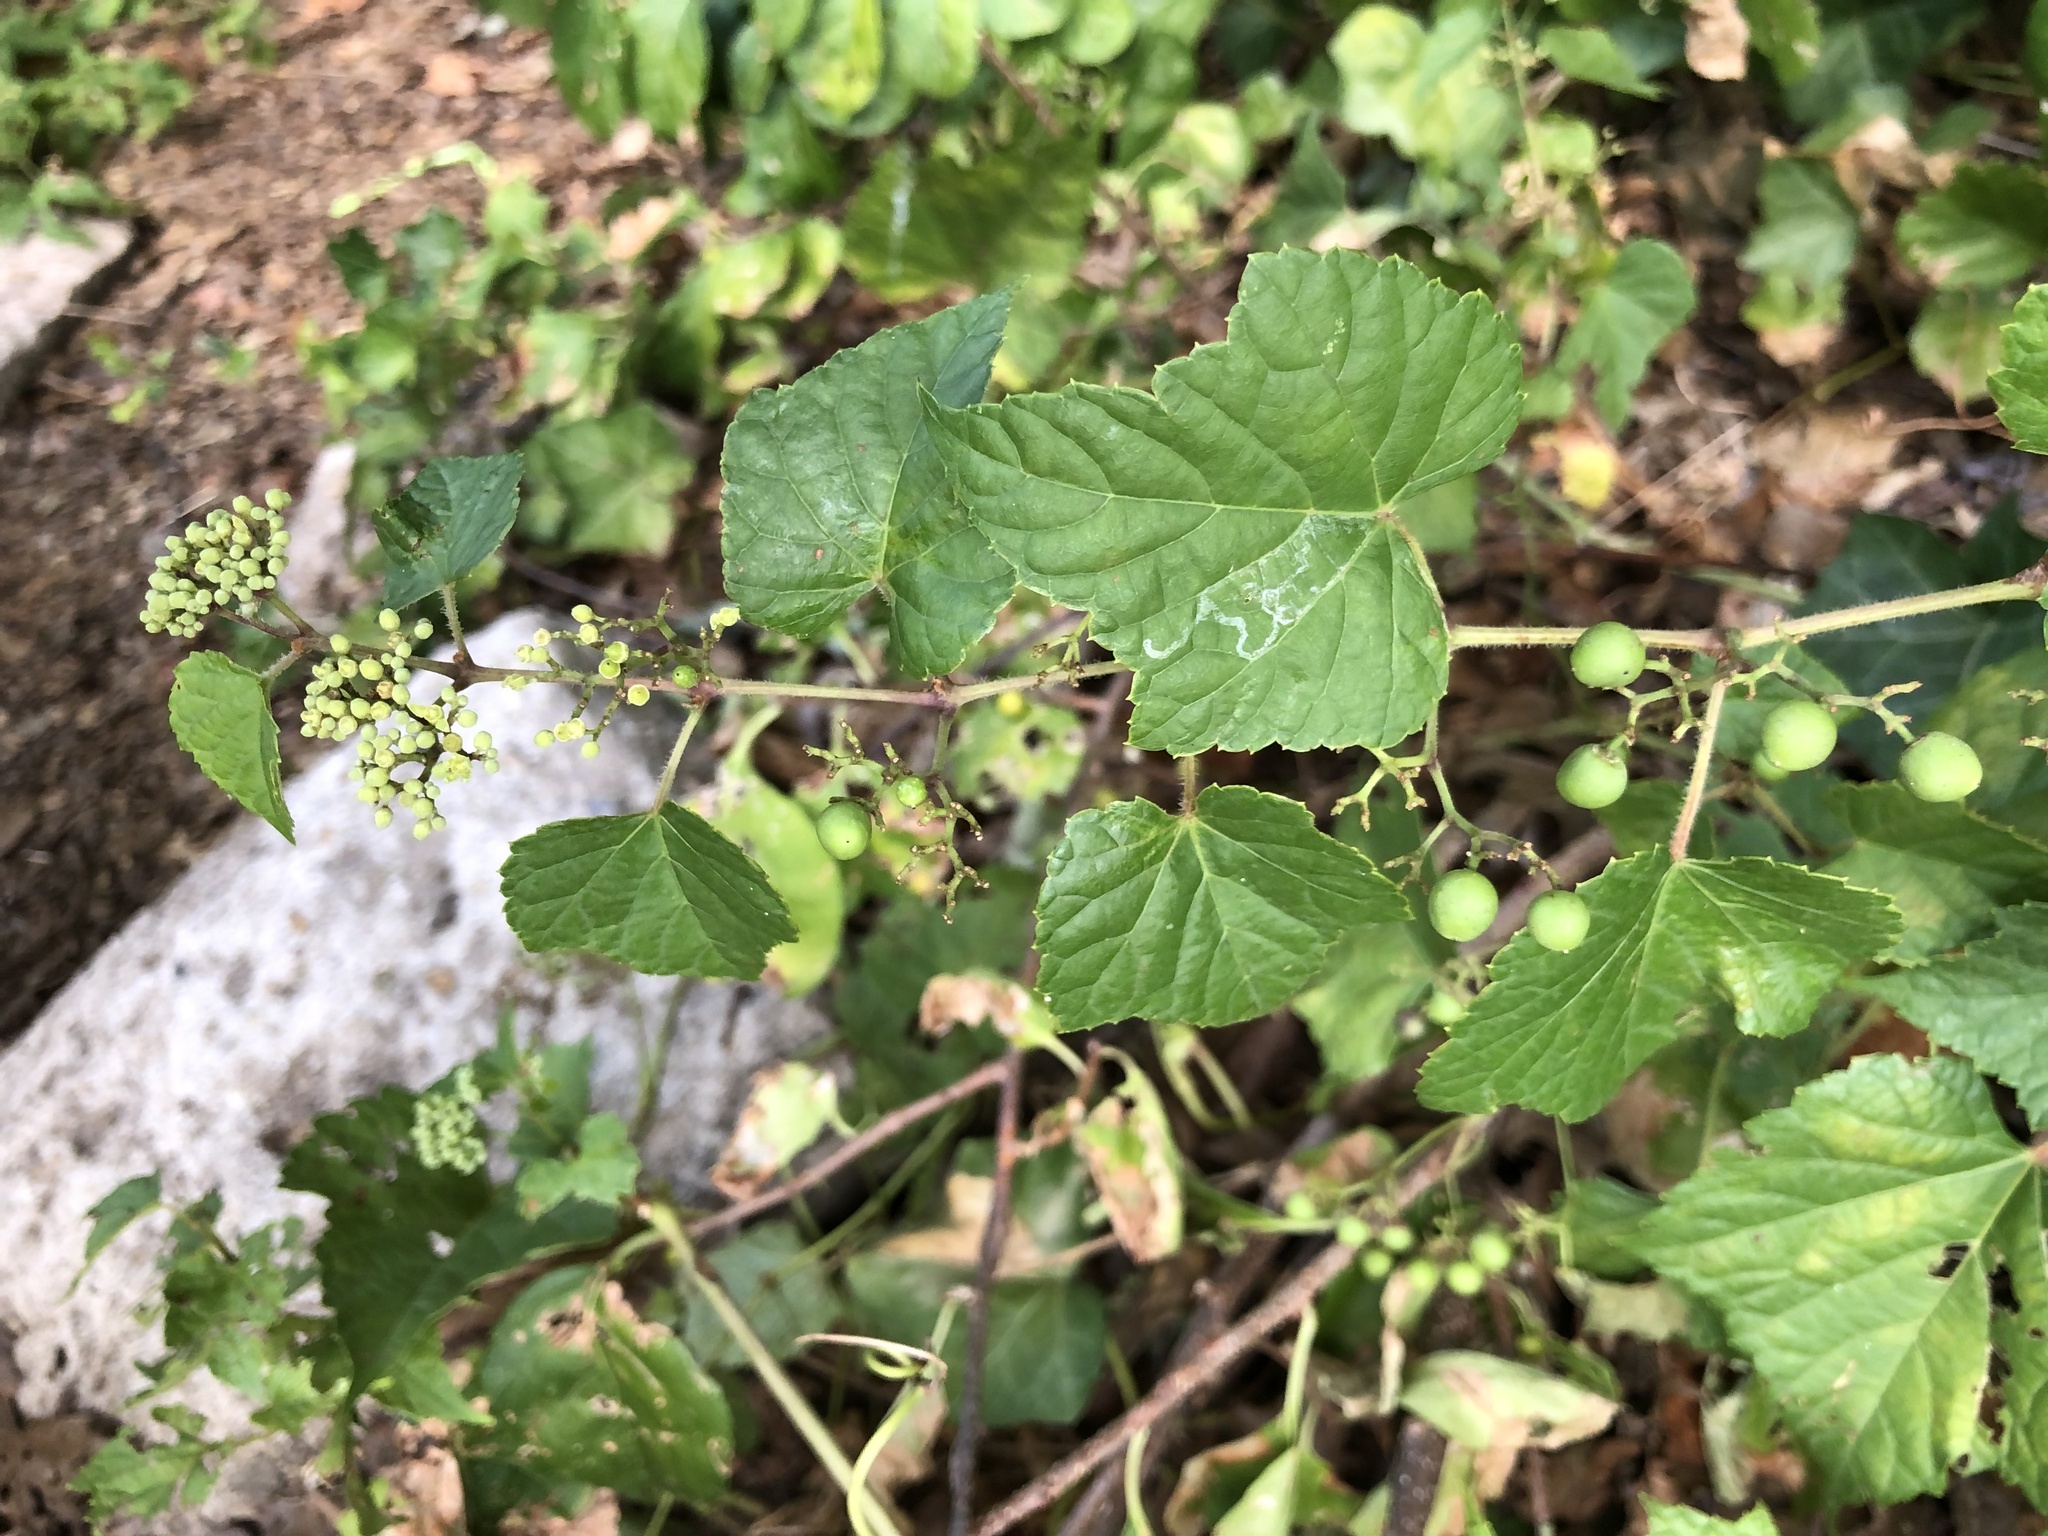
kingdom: Plantae
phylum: Tracheophyta
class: Magnoliopsida
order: Vitales
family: Vitaceae
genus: Ampelopsis
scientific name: Ampelopsis glandulosa
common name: Amur peppervine
